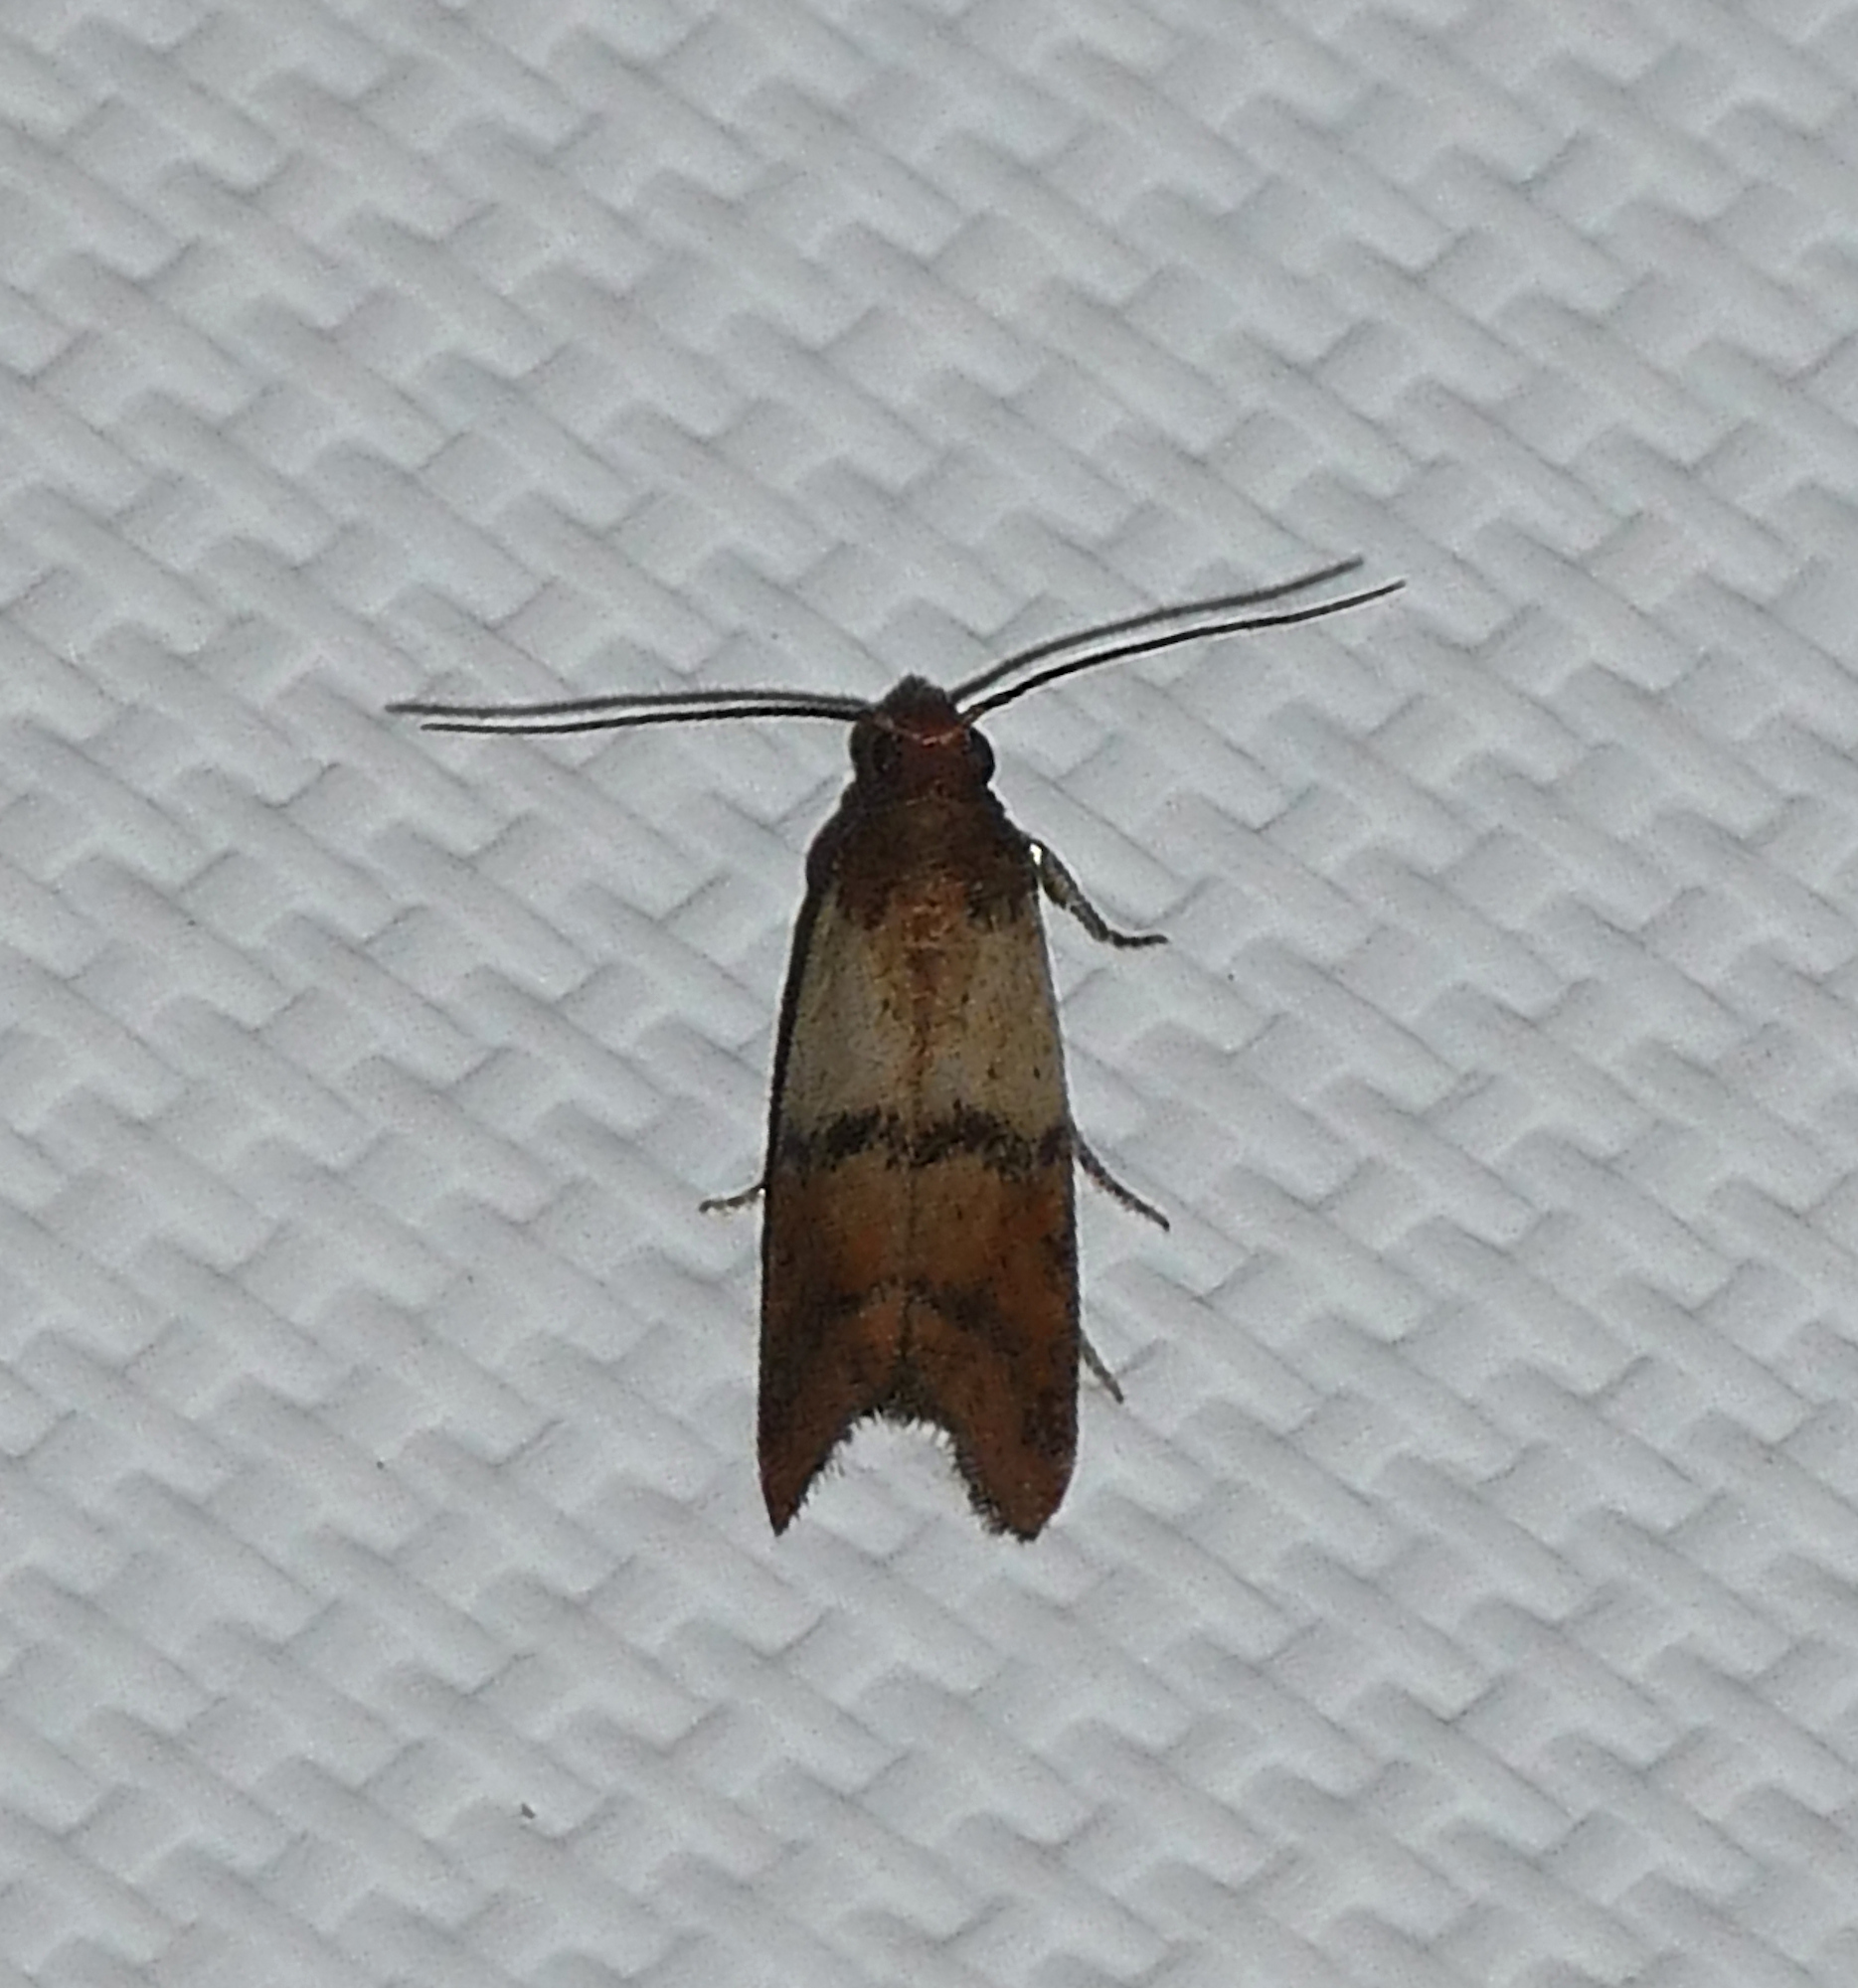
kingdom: Animalia
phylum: Arthropoda
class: Insecta
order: Lepidoptera
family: Pyralidae
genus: Plodia
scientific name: Plodia interpunctella
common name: Indian meal moth
